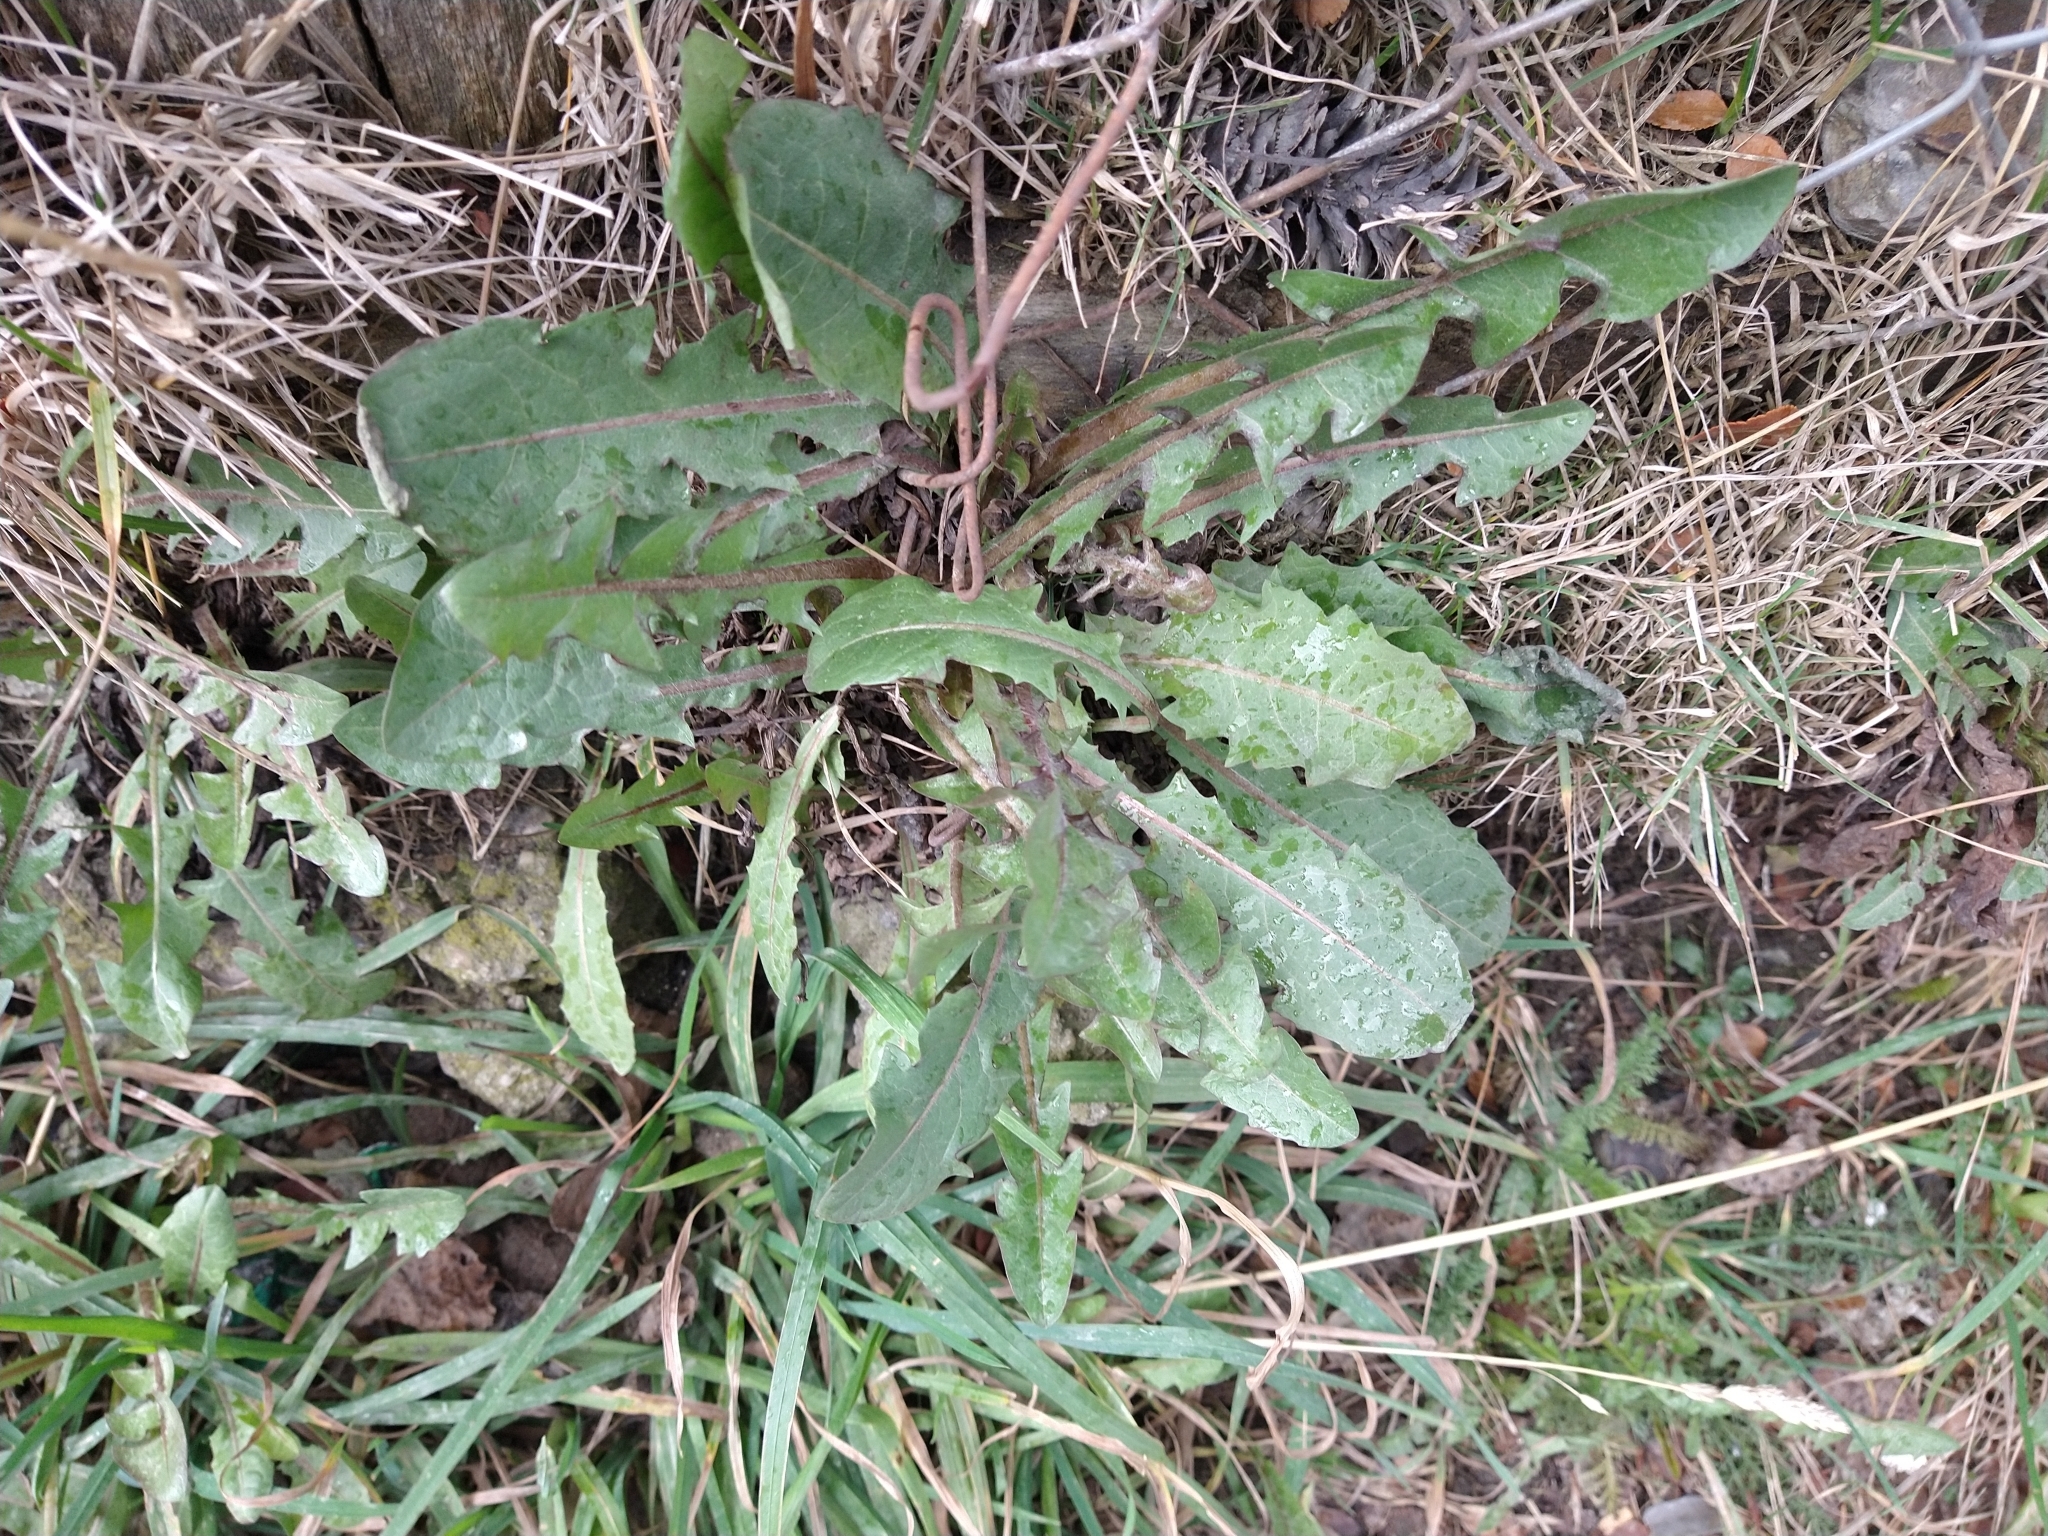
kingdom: Plantae
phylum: Tracheophyta
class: Magnoliopsida
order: Asterales
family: Asteraceae
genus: Taraxacum
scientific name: Taraxacum officinale
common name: Common dandelion
